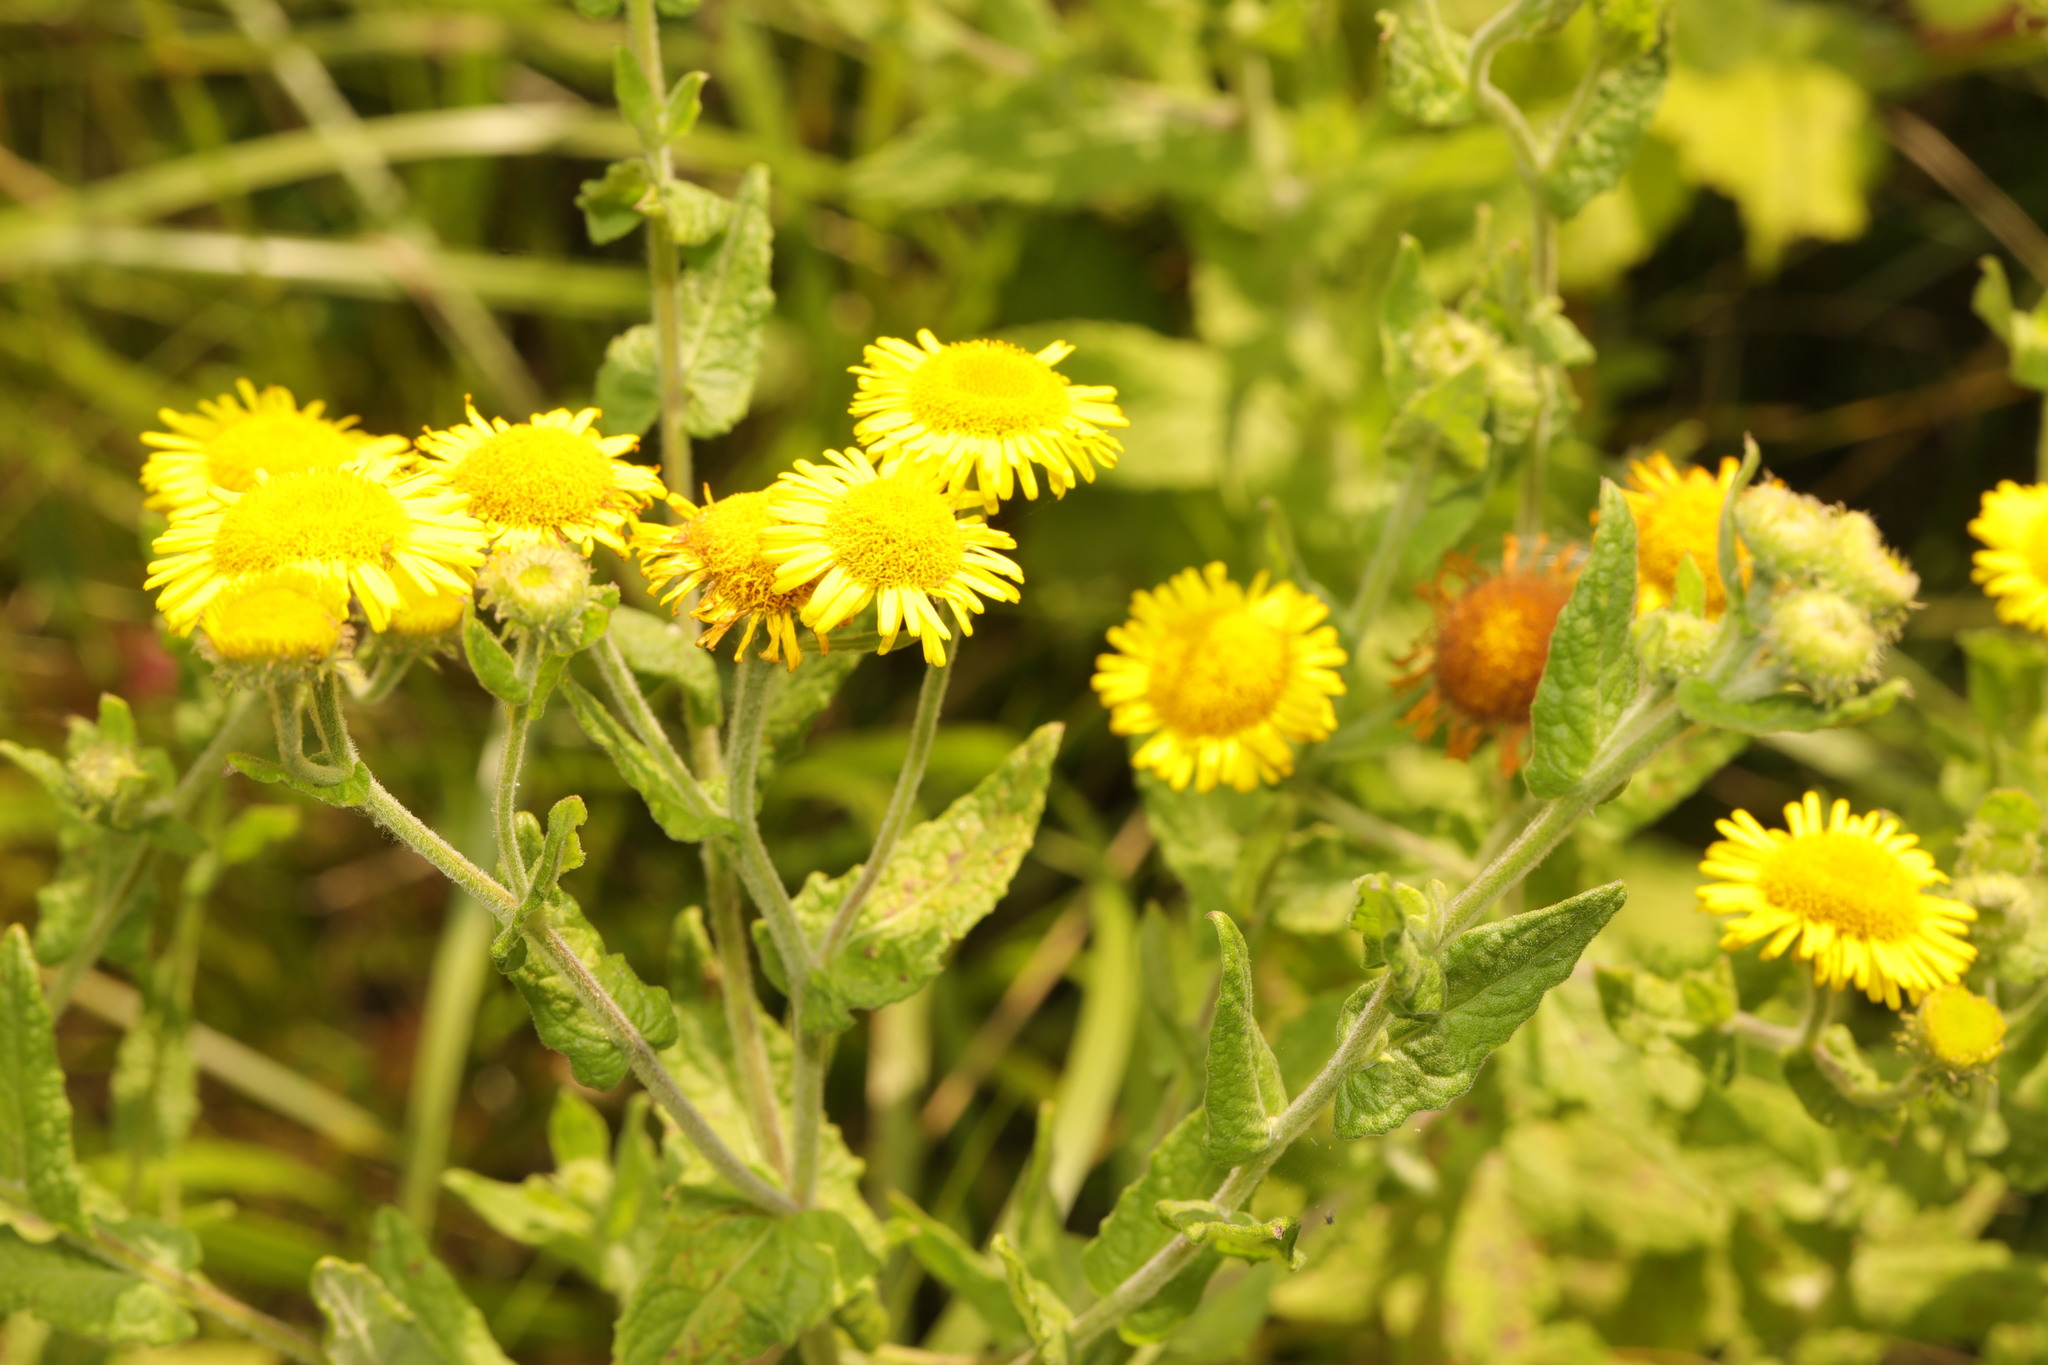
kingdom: Plantae
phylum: Tracheophyta
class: Magnoliopsida
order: Asterales
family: Asteraceae
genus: Pulicaria
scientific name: Pulicaria dysenterica
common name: Common fleabane
